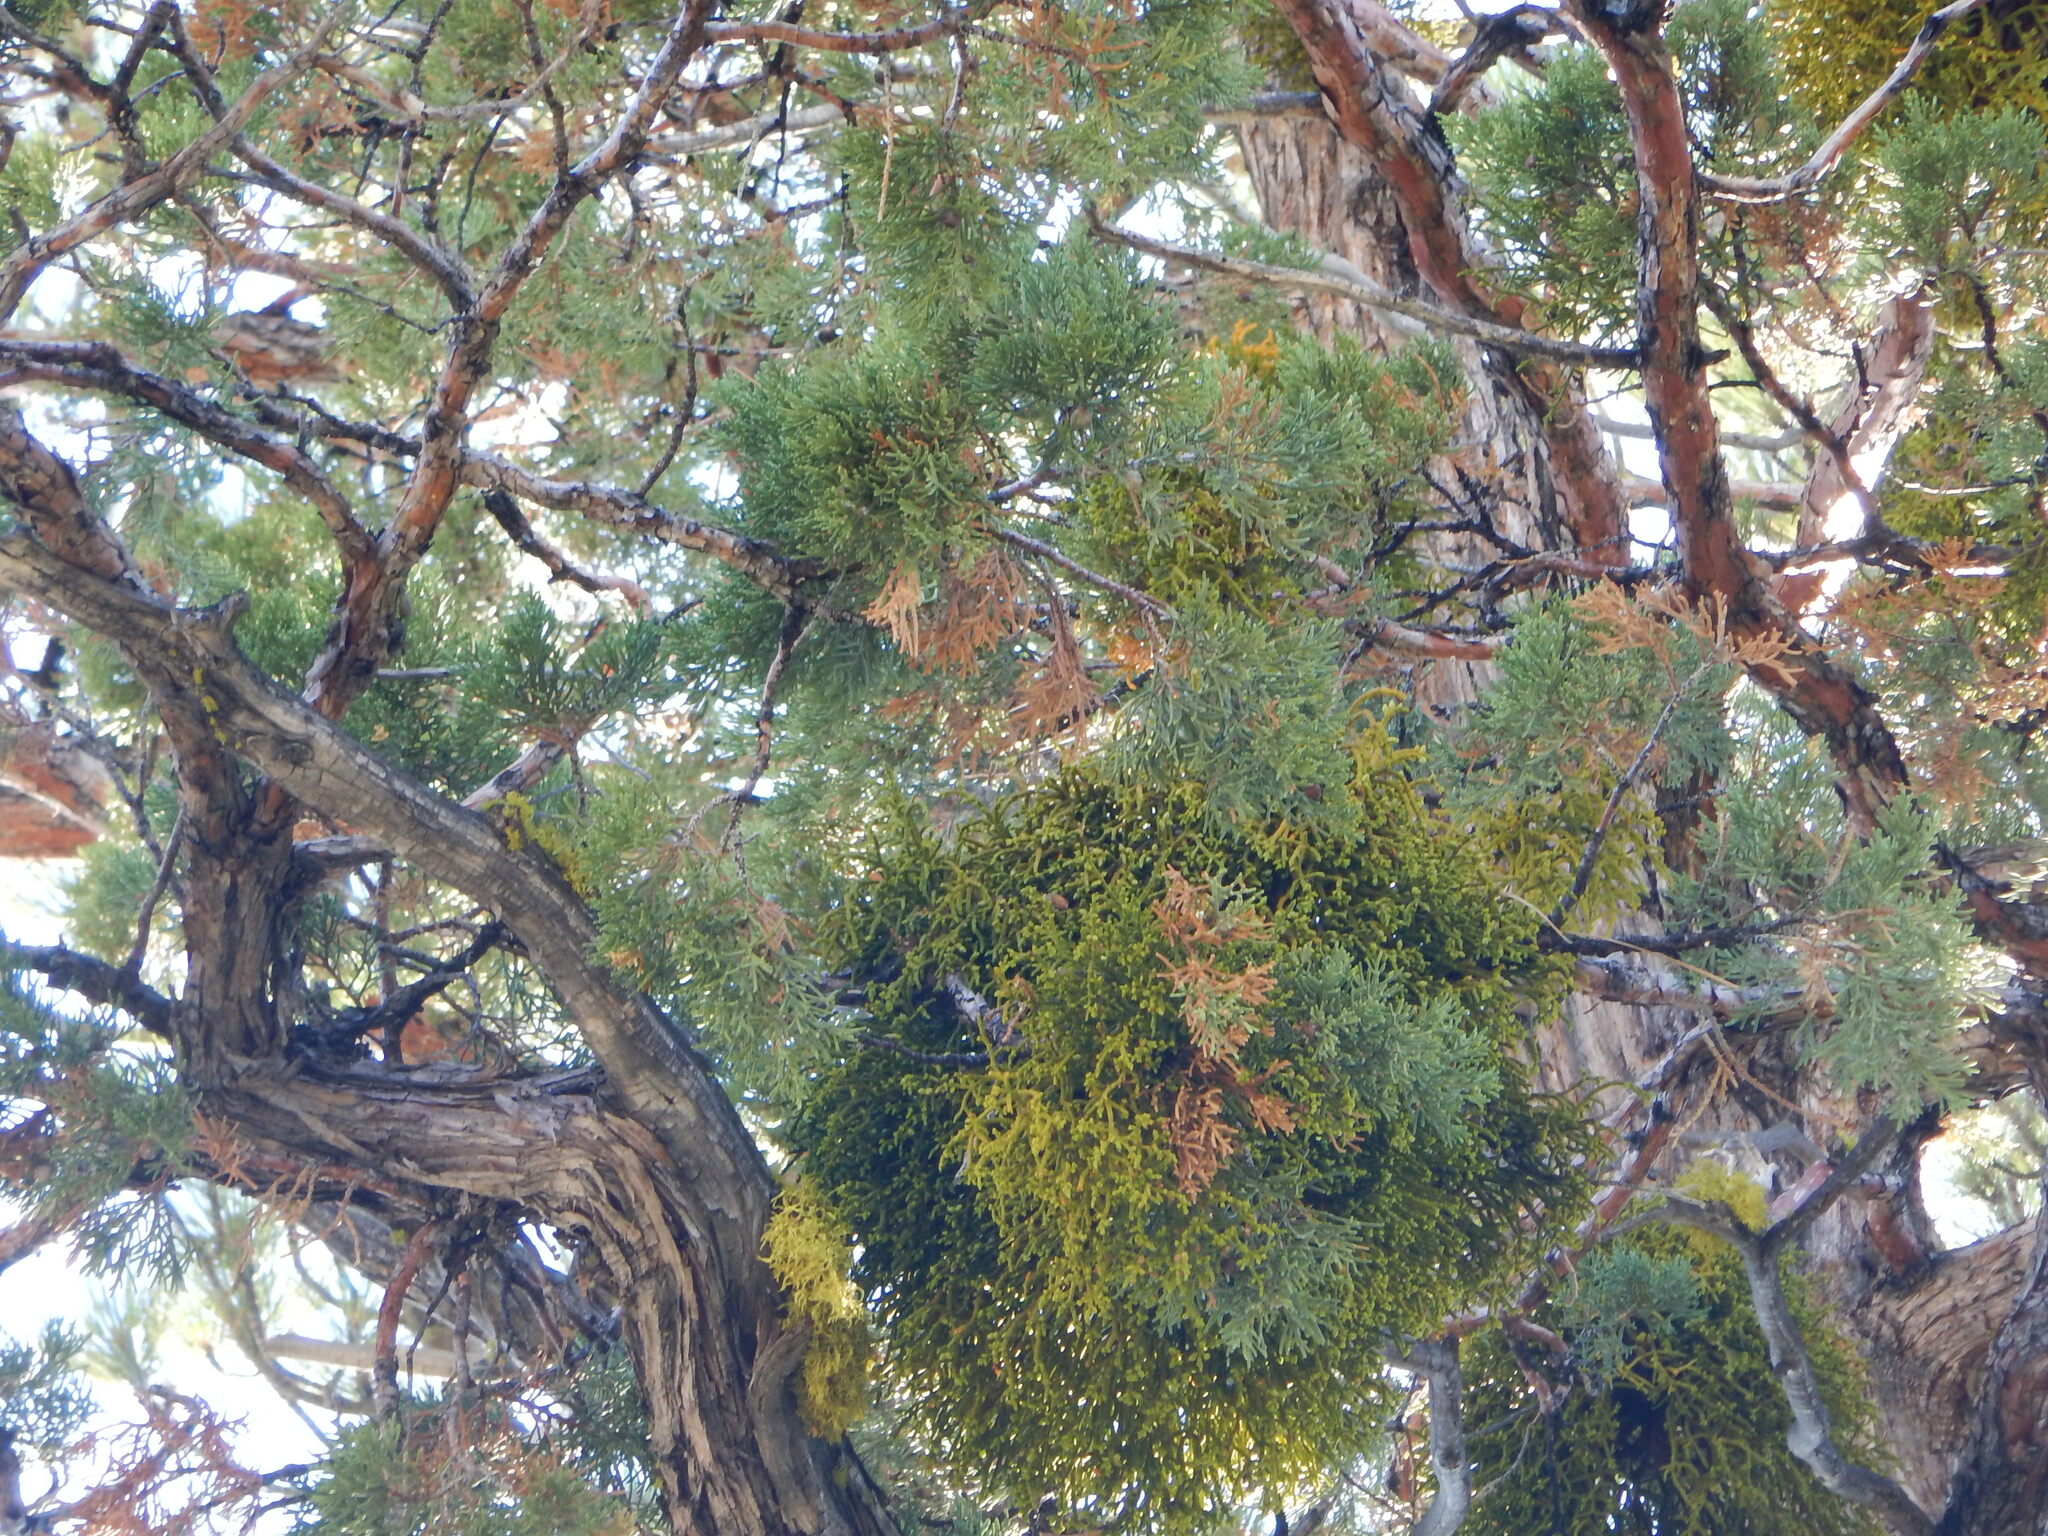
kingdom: Plantae
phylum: Tracheophyta
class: Magnoliopsida
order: Santalales
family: Viscaceae
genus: Phoradendron
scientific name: Phoradendron juniperinum
